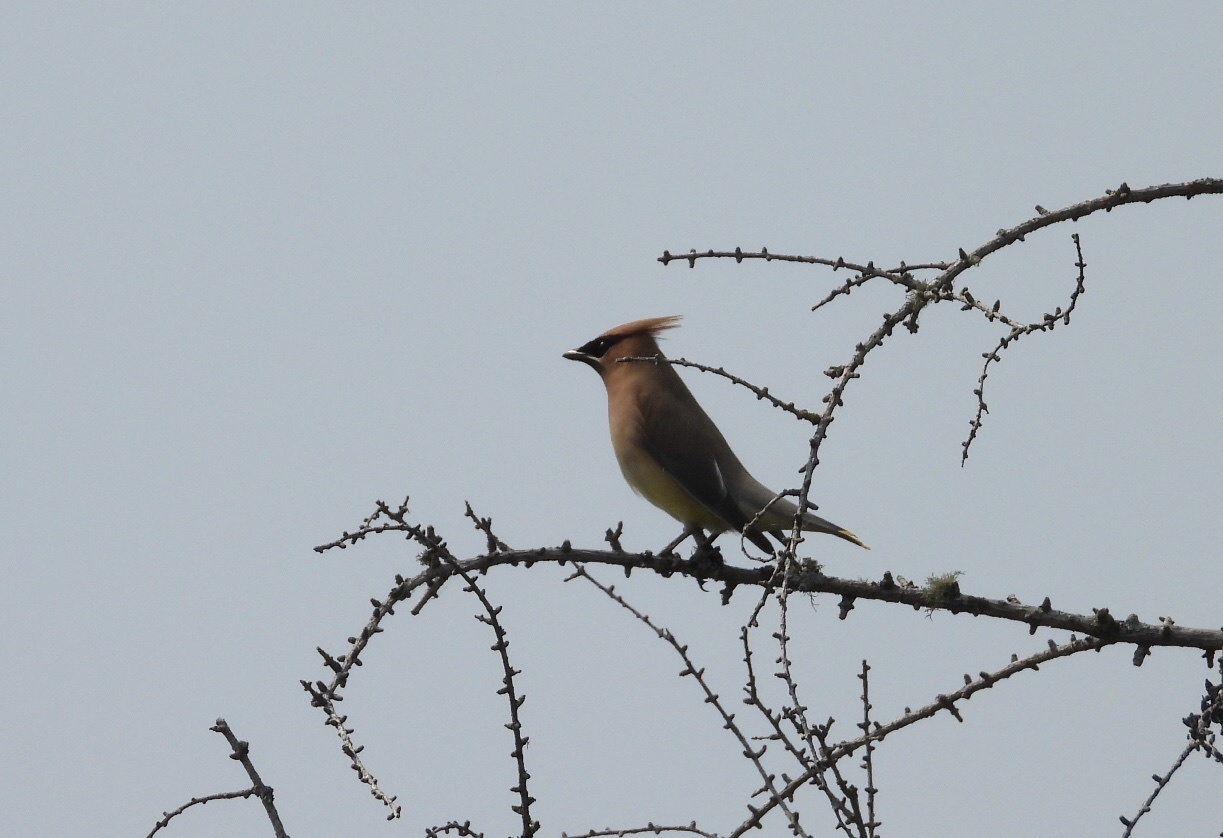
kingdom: Animalia
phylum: Chordata
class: Aves
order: Passeriformes
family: Bombycillidae
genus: Bombycilla
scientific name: Bombycilla cedrorum
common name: Cedar waxwing
